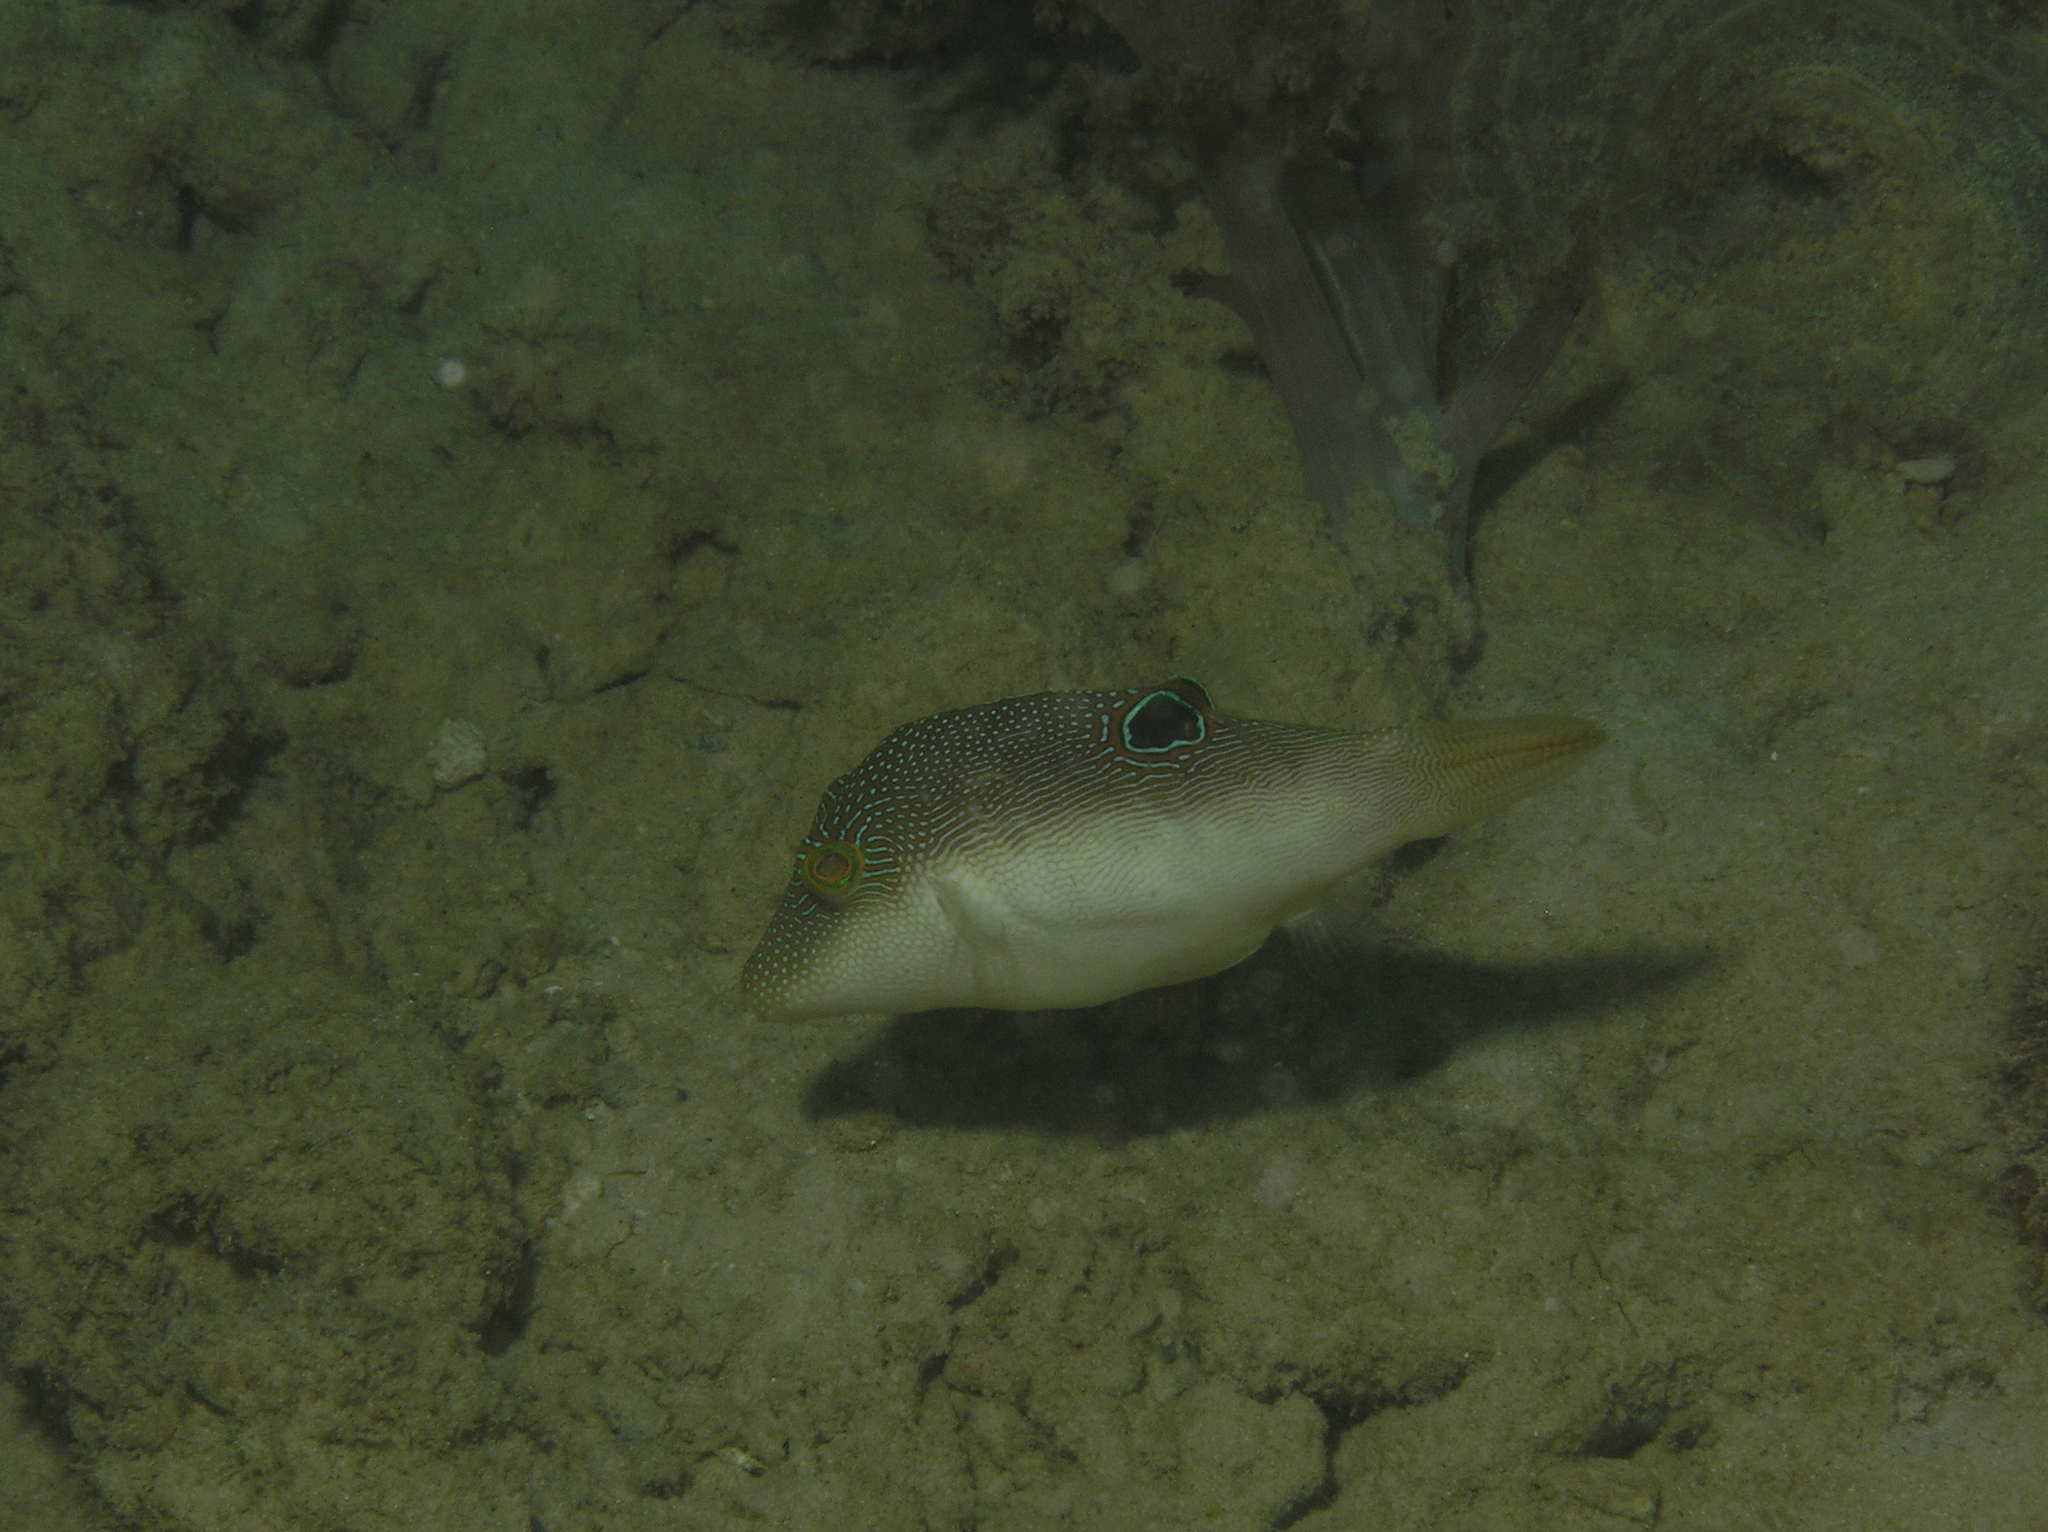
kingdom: Animalia
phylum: Chordata
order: Tetraodontiformes
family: Tetraodontidae
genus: Canthigaster
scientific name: Canthigaster compressa
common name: Compressed toby
